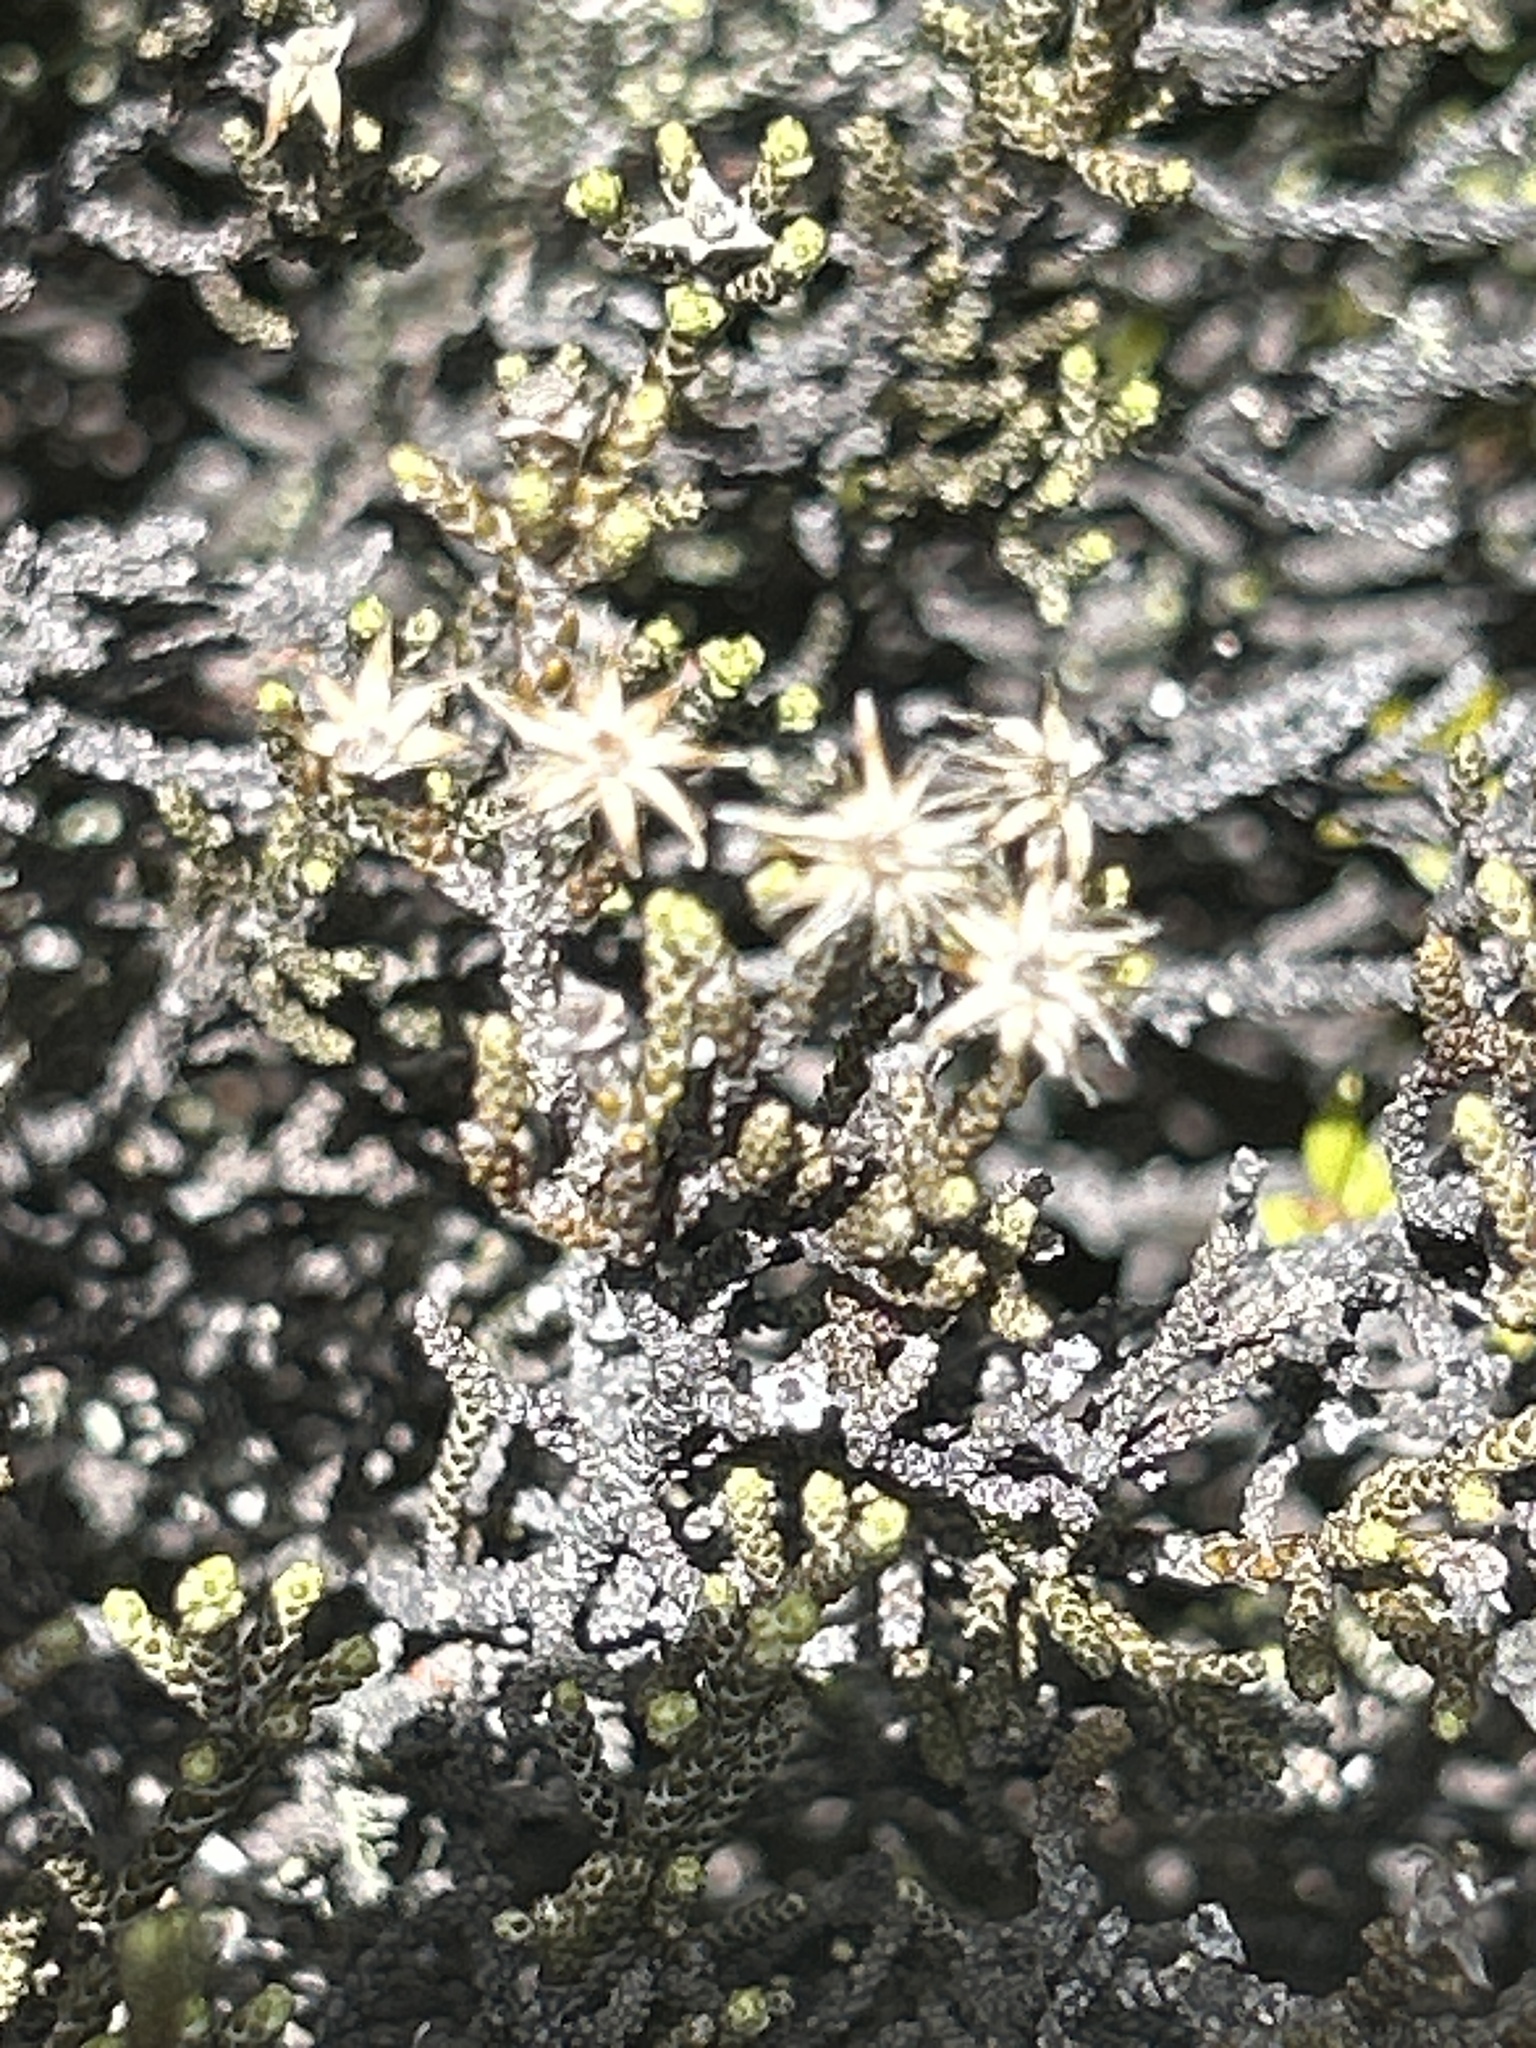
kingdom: Plantae
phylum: Tracheophyta
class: Magnoliopsida
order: Asterales
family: Asteraceae
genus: Ozothamnus
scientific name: Ozothamnus parvifolius
